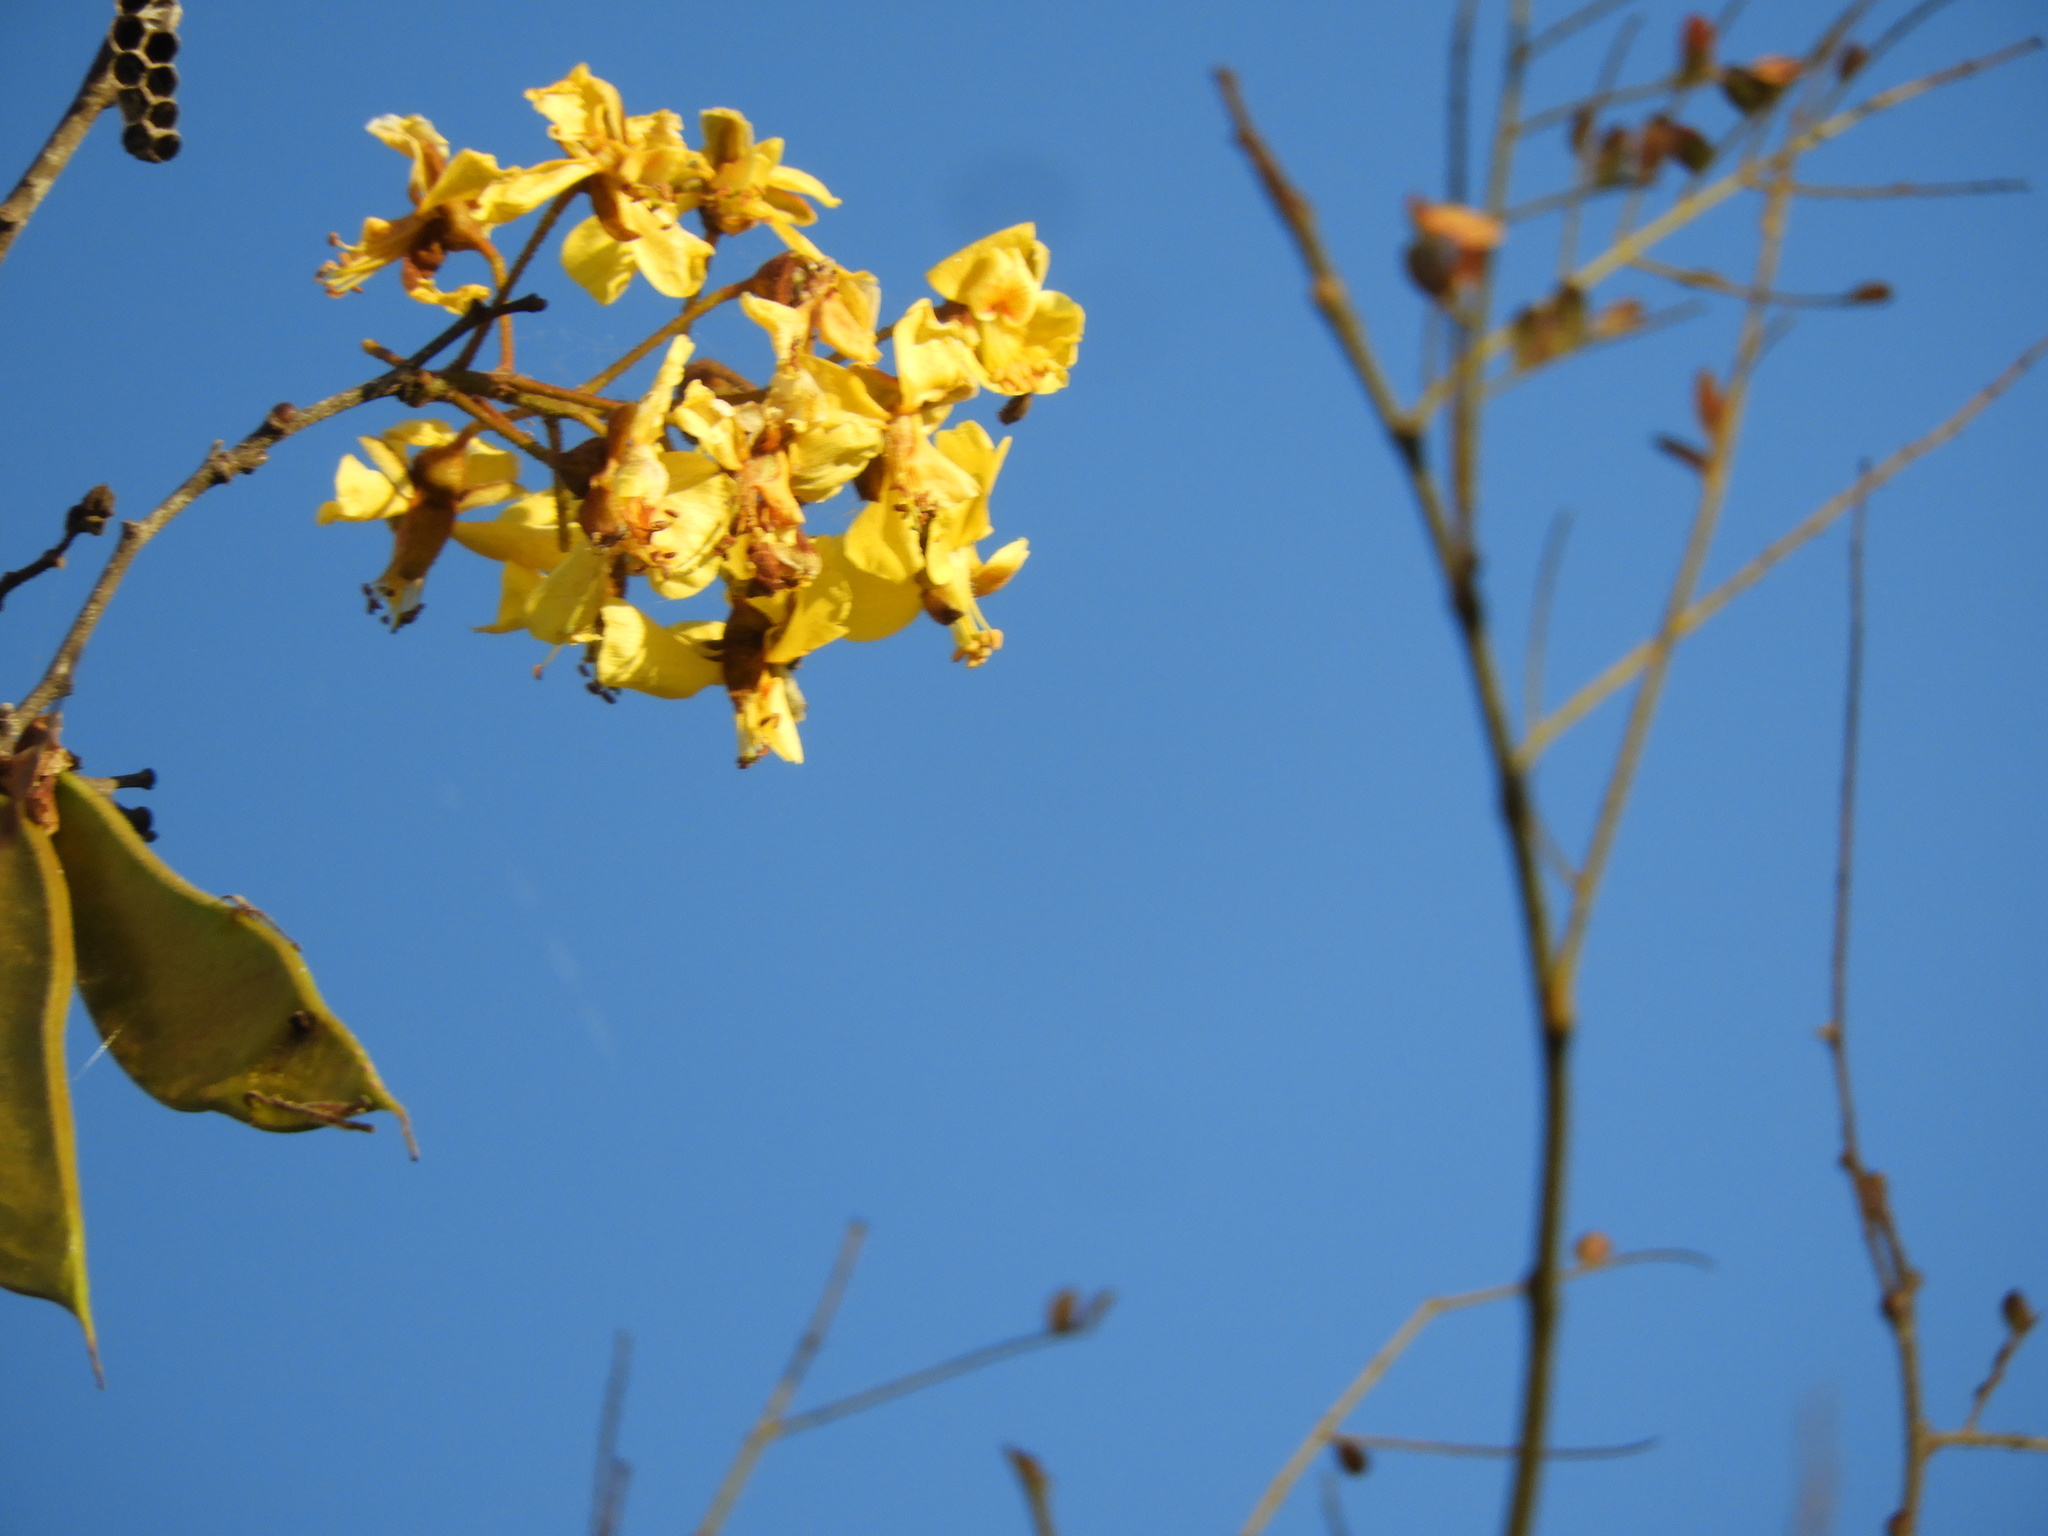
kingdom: Plantae
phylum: Tracheophyta
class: Magnoliopsida
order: Fabales
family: Fabaceae
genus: Cenostigma
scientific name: Cenostigma eriostachys
